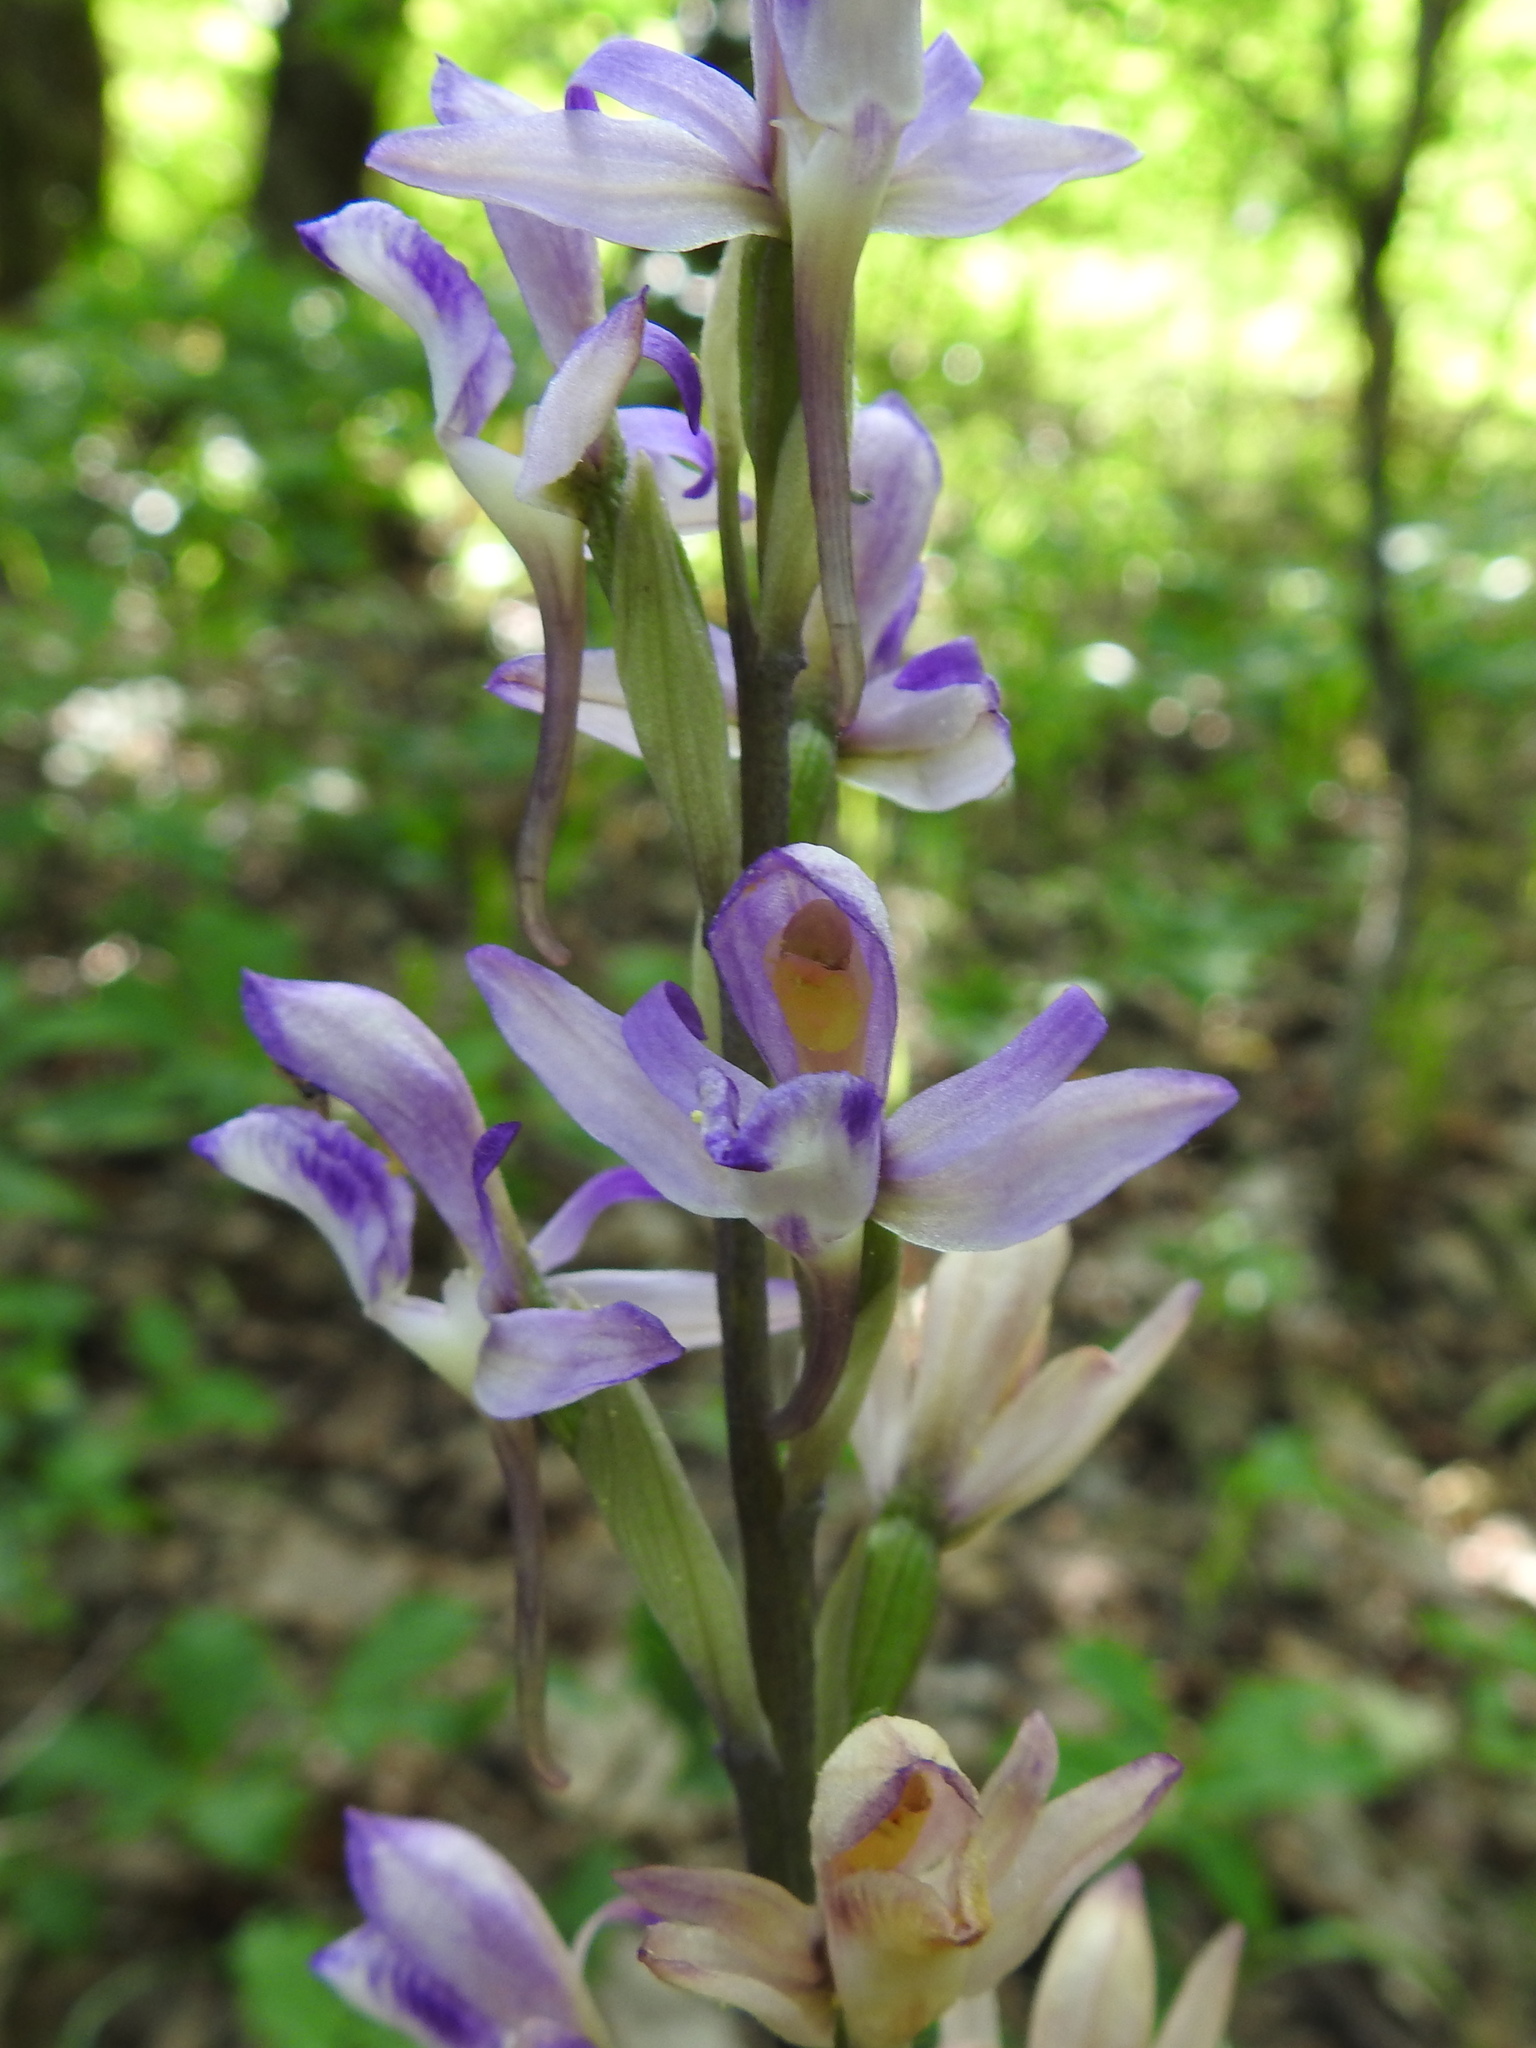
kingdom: Plantae
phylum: Tracheophyta
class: Liliopsida
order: Asparagales
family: Orchidaceae
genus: Limodorum
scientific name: Limodorum abortivum
